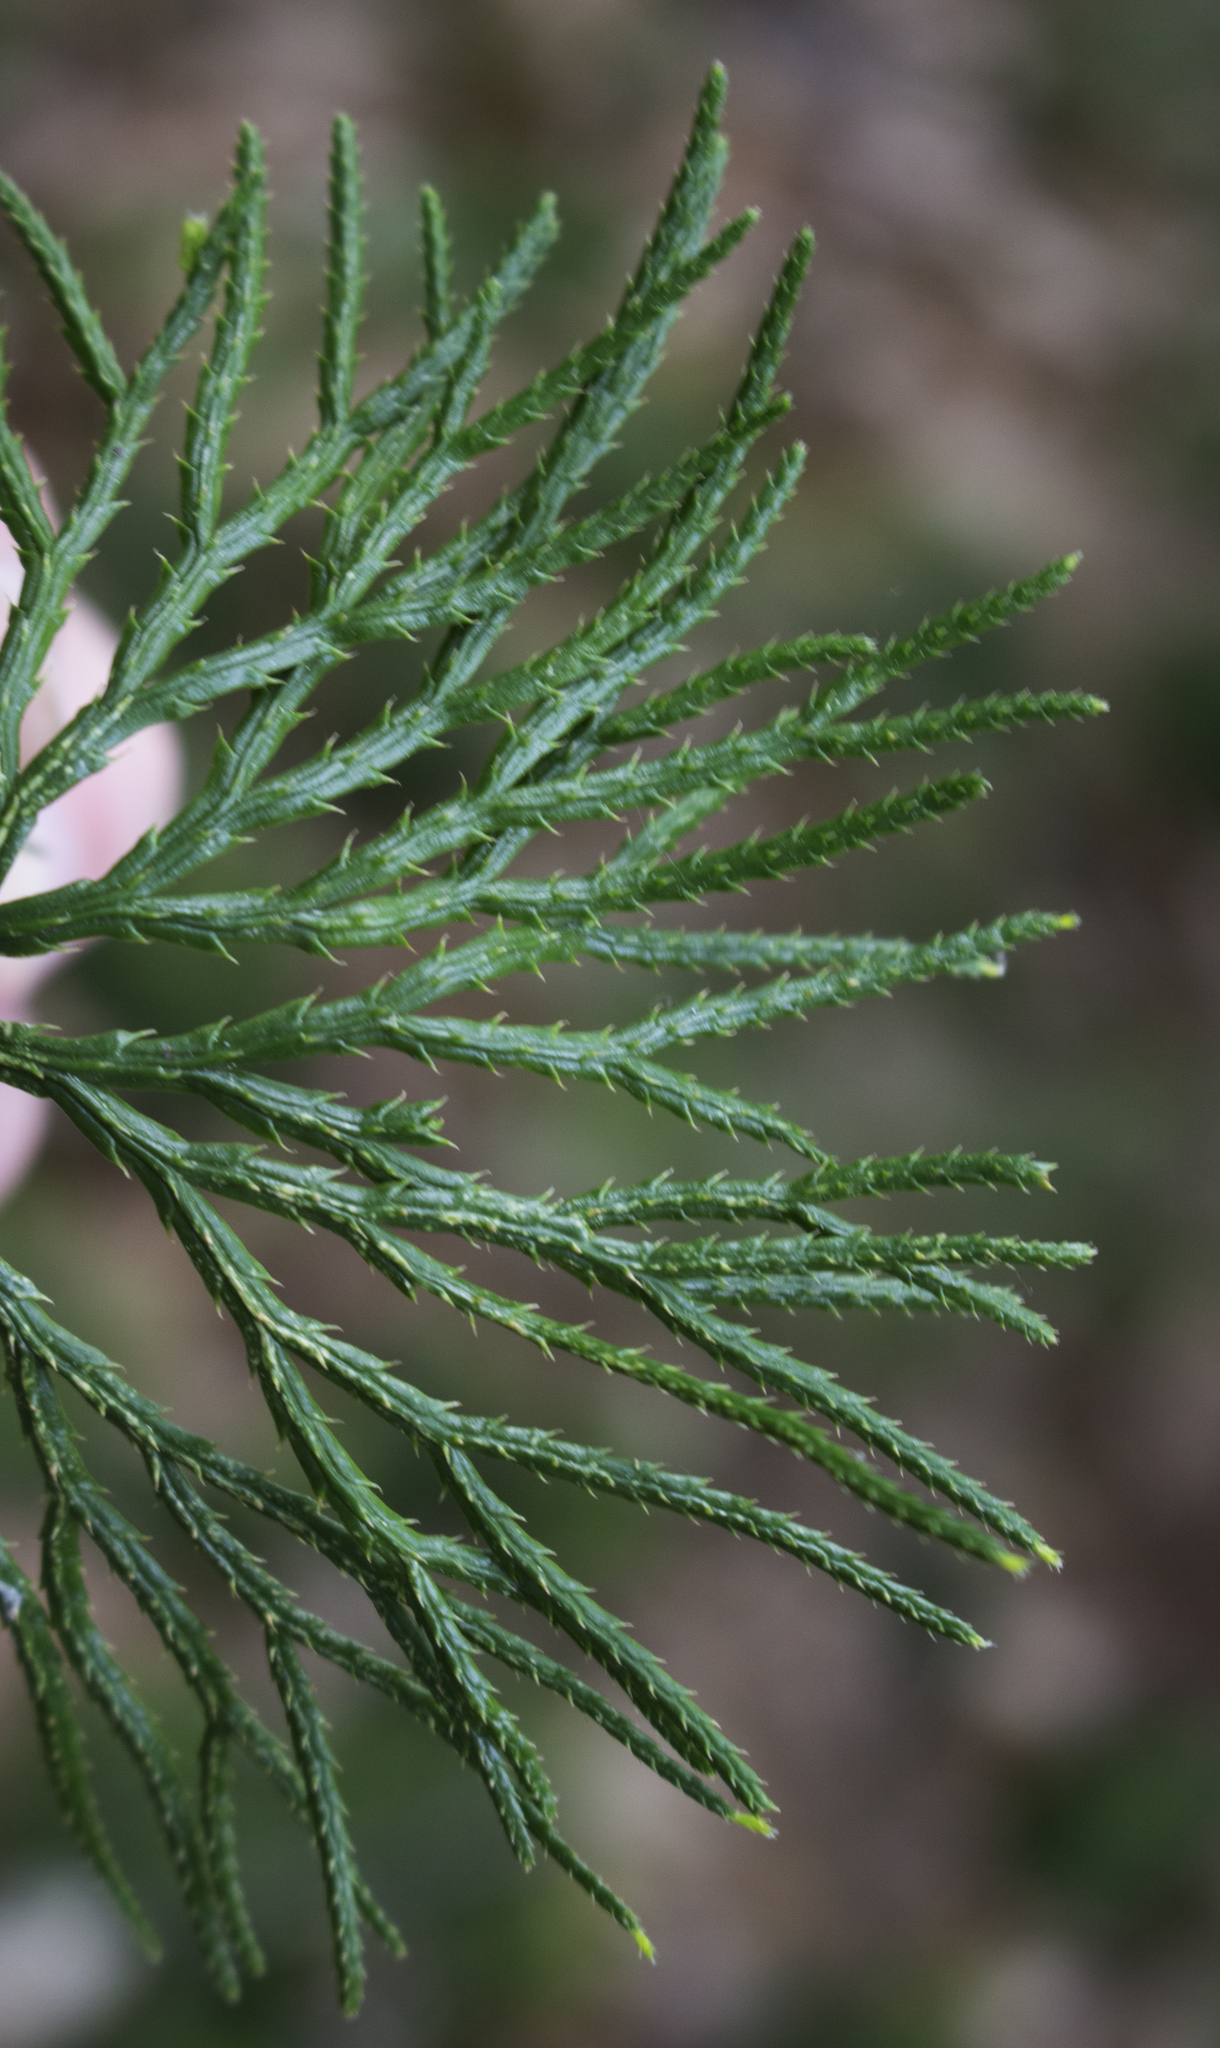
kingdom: Plantae
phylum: Tracheophyta
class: Lycopodiopsida
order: Lycopodiales
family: Lycopodiaceae
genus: Diphasiastrum
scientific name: Diphasiastrum digitatum
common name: Southern running-pine
